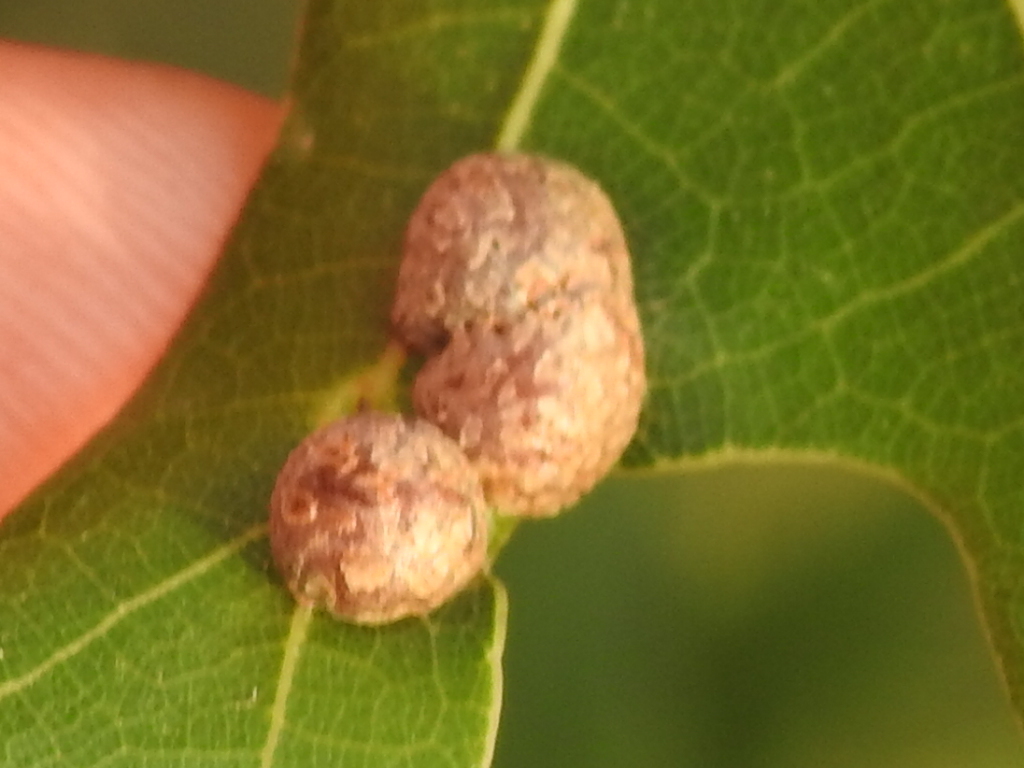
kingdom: Animalia
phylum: Arthropoda
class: Insecta
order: Diptera
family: Cecidomyiidae
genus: Polystepha
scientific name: Polystepha pilulae
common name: Oak leaf gall midge
